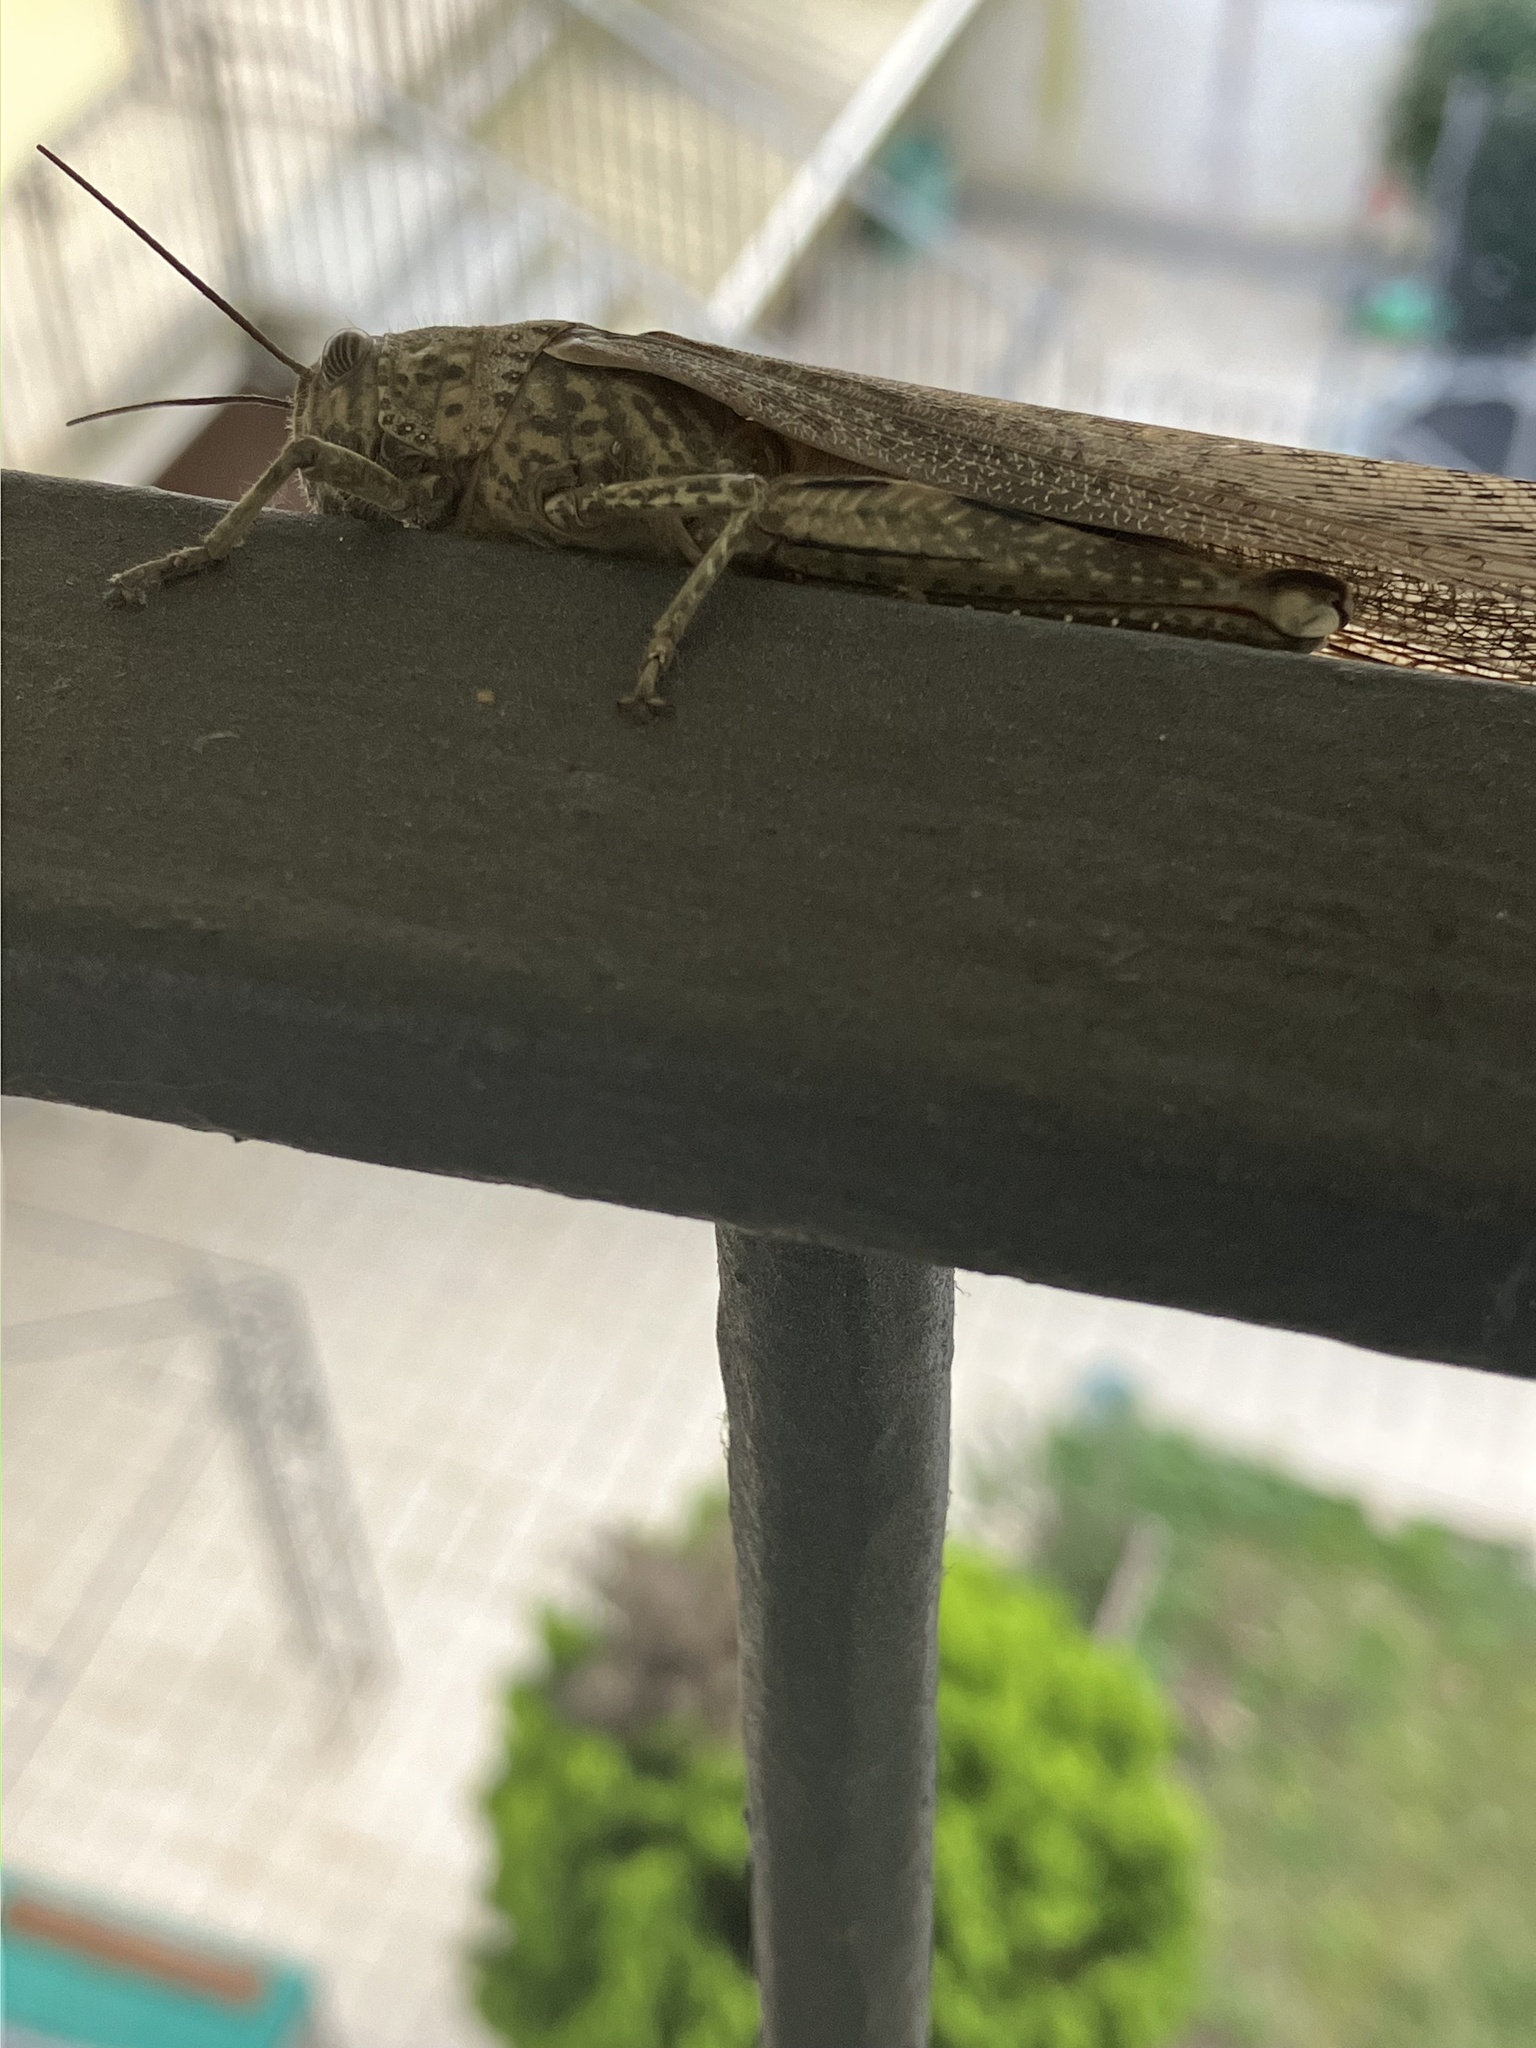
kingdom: Animalia
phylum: Arthropoda
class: Insecta
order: Orthoptera
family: Acrididae
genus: Anacridium
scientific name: Anacridium aegyptium
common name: Egyptian grasshopper
